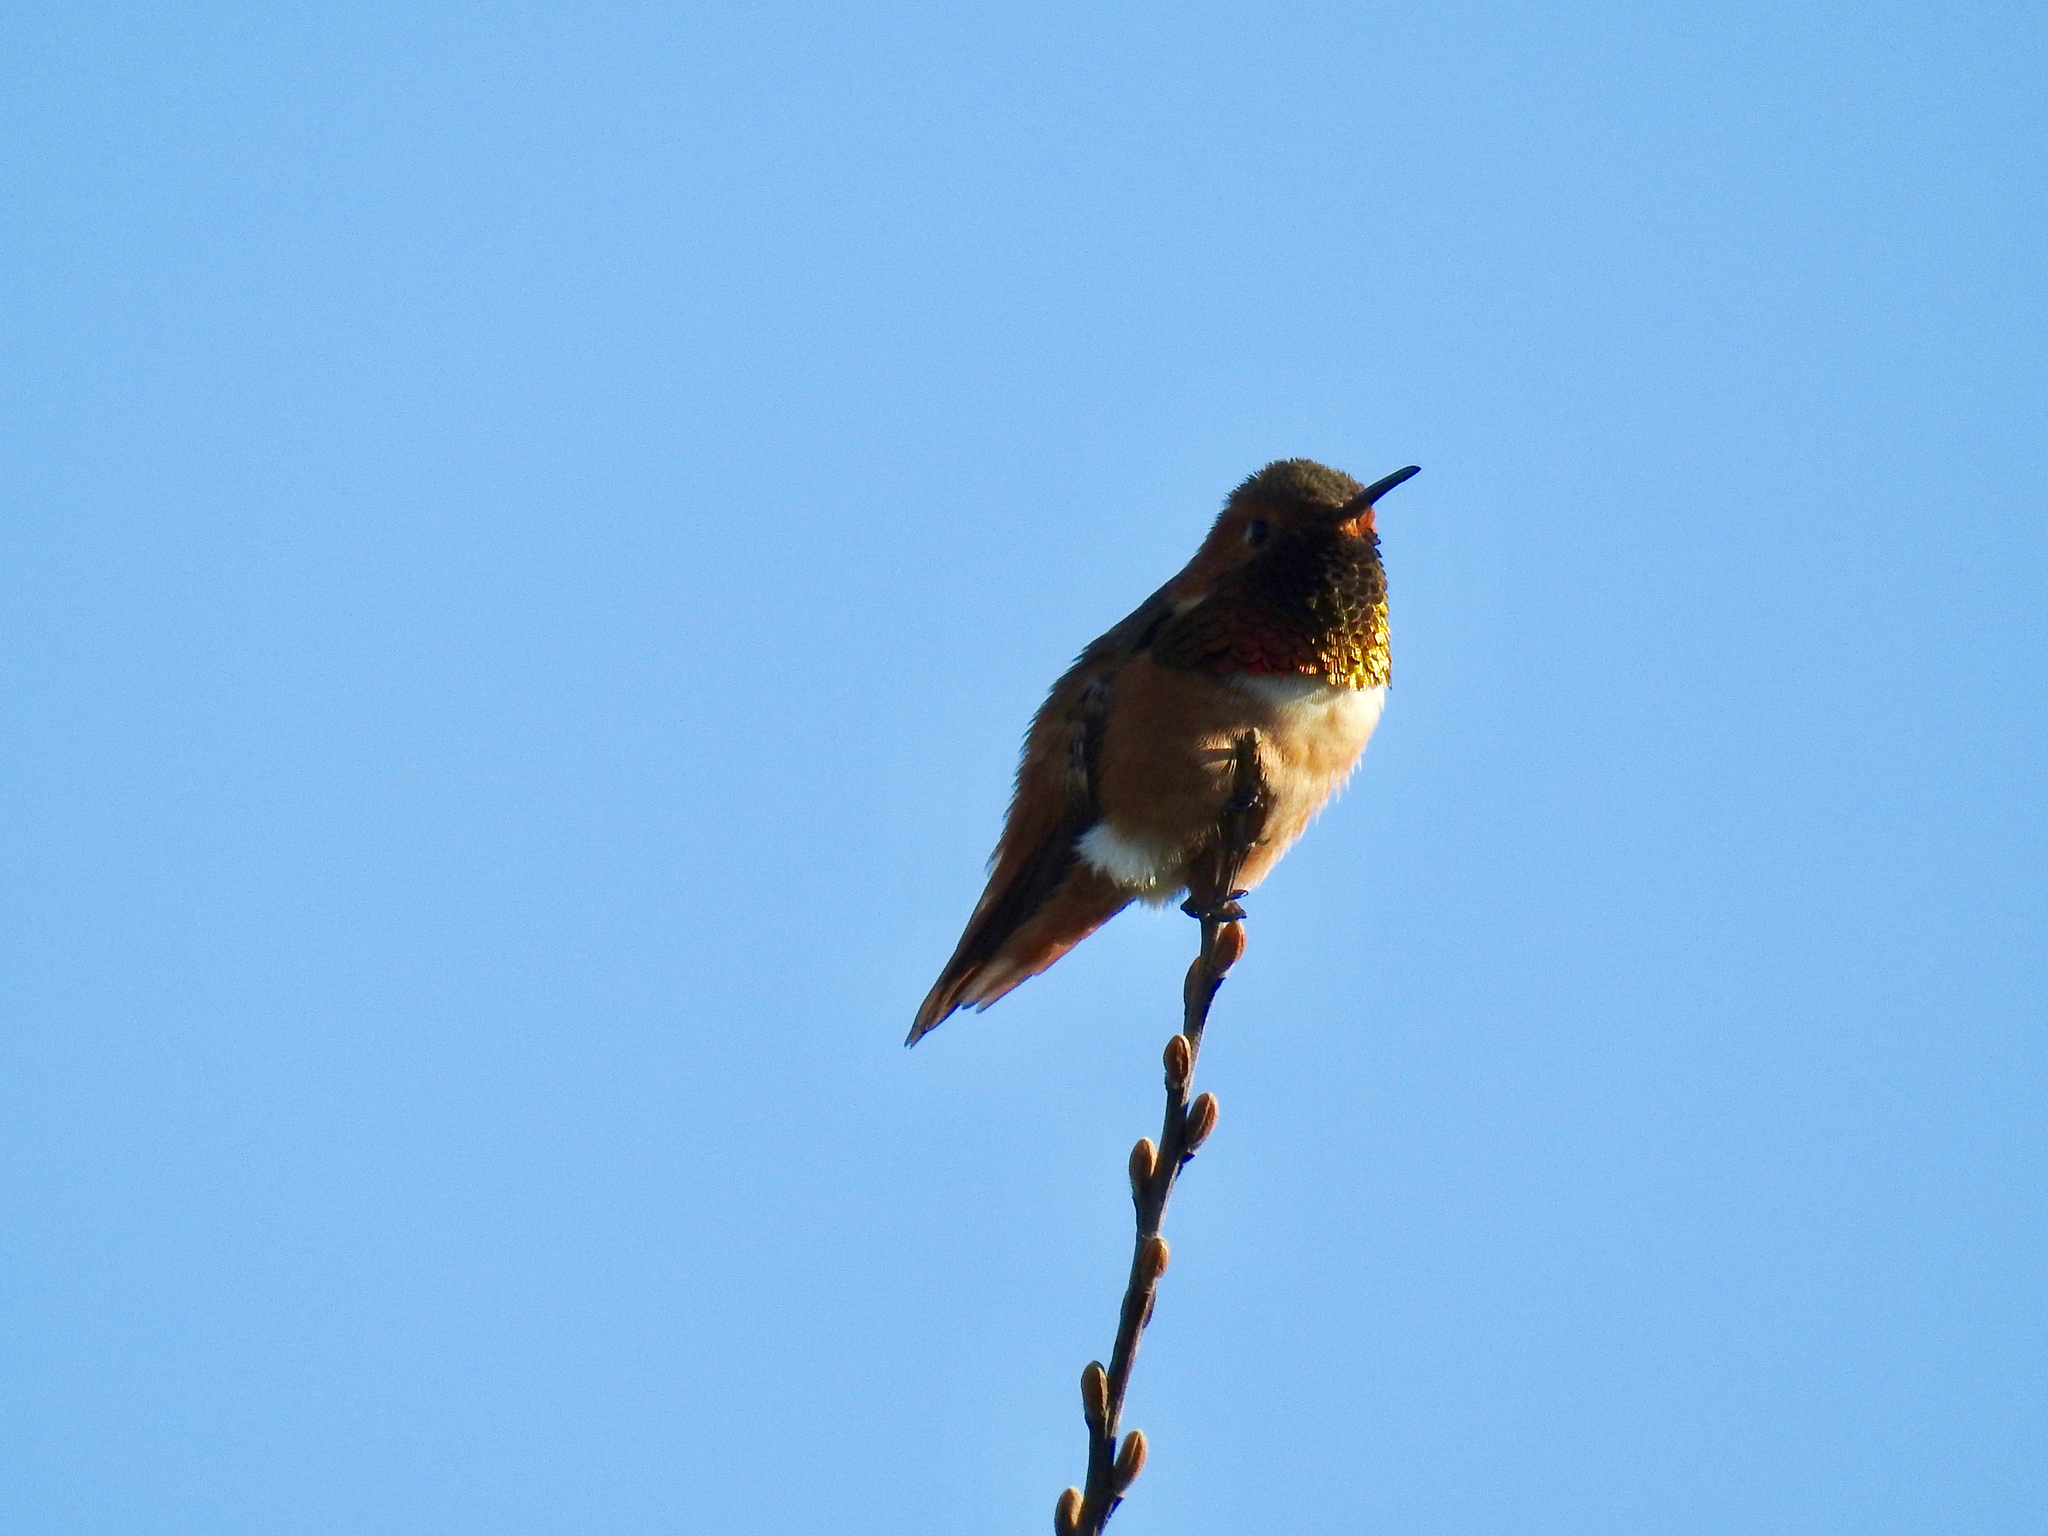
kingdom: Animalia
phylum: Chordata
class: Aves
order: Apodiformes
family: Trochilidae
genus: Selasphorus
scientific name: Selasphorus sasin
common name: Allen's hummingbird
